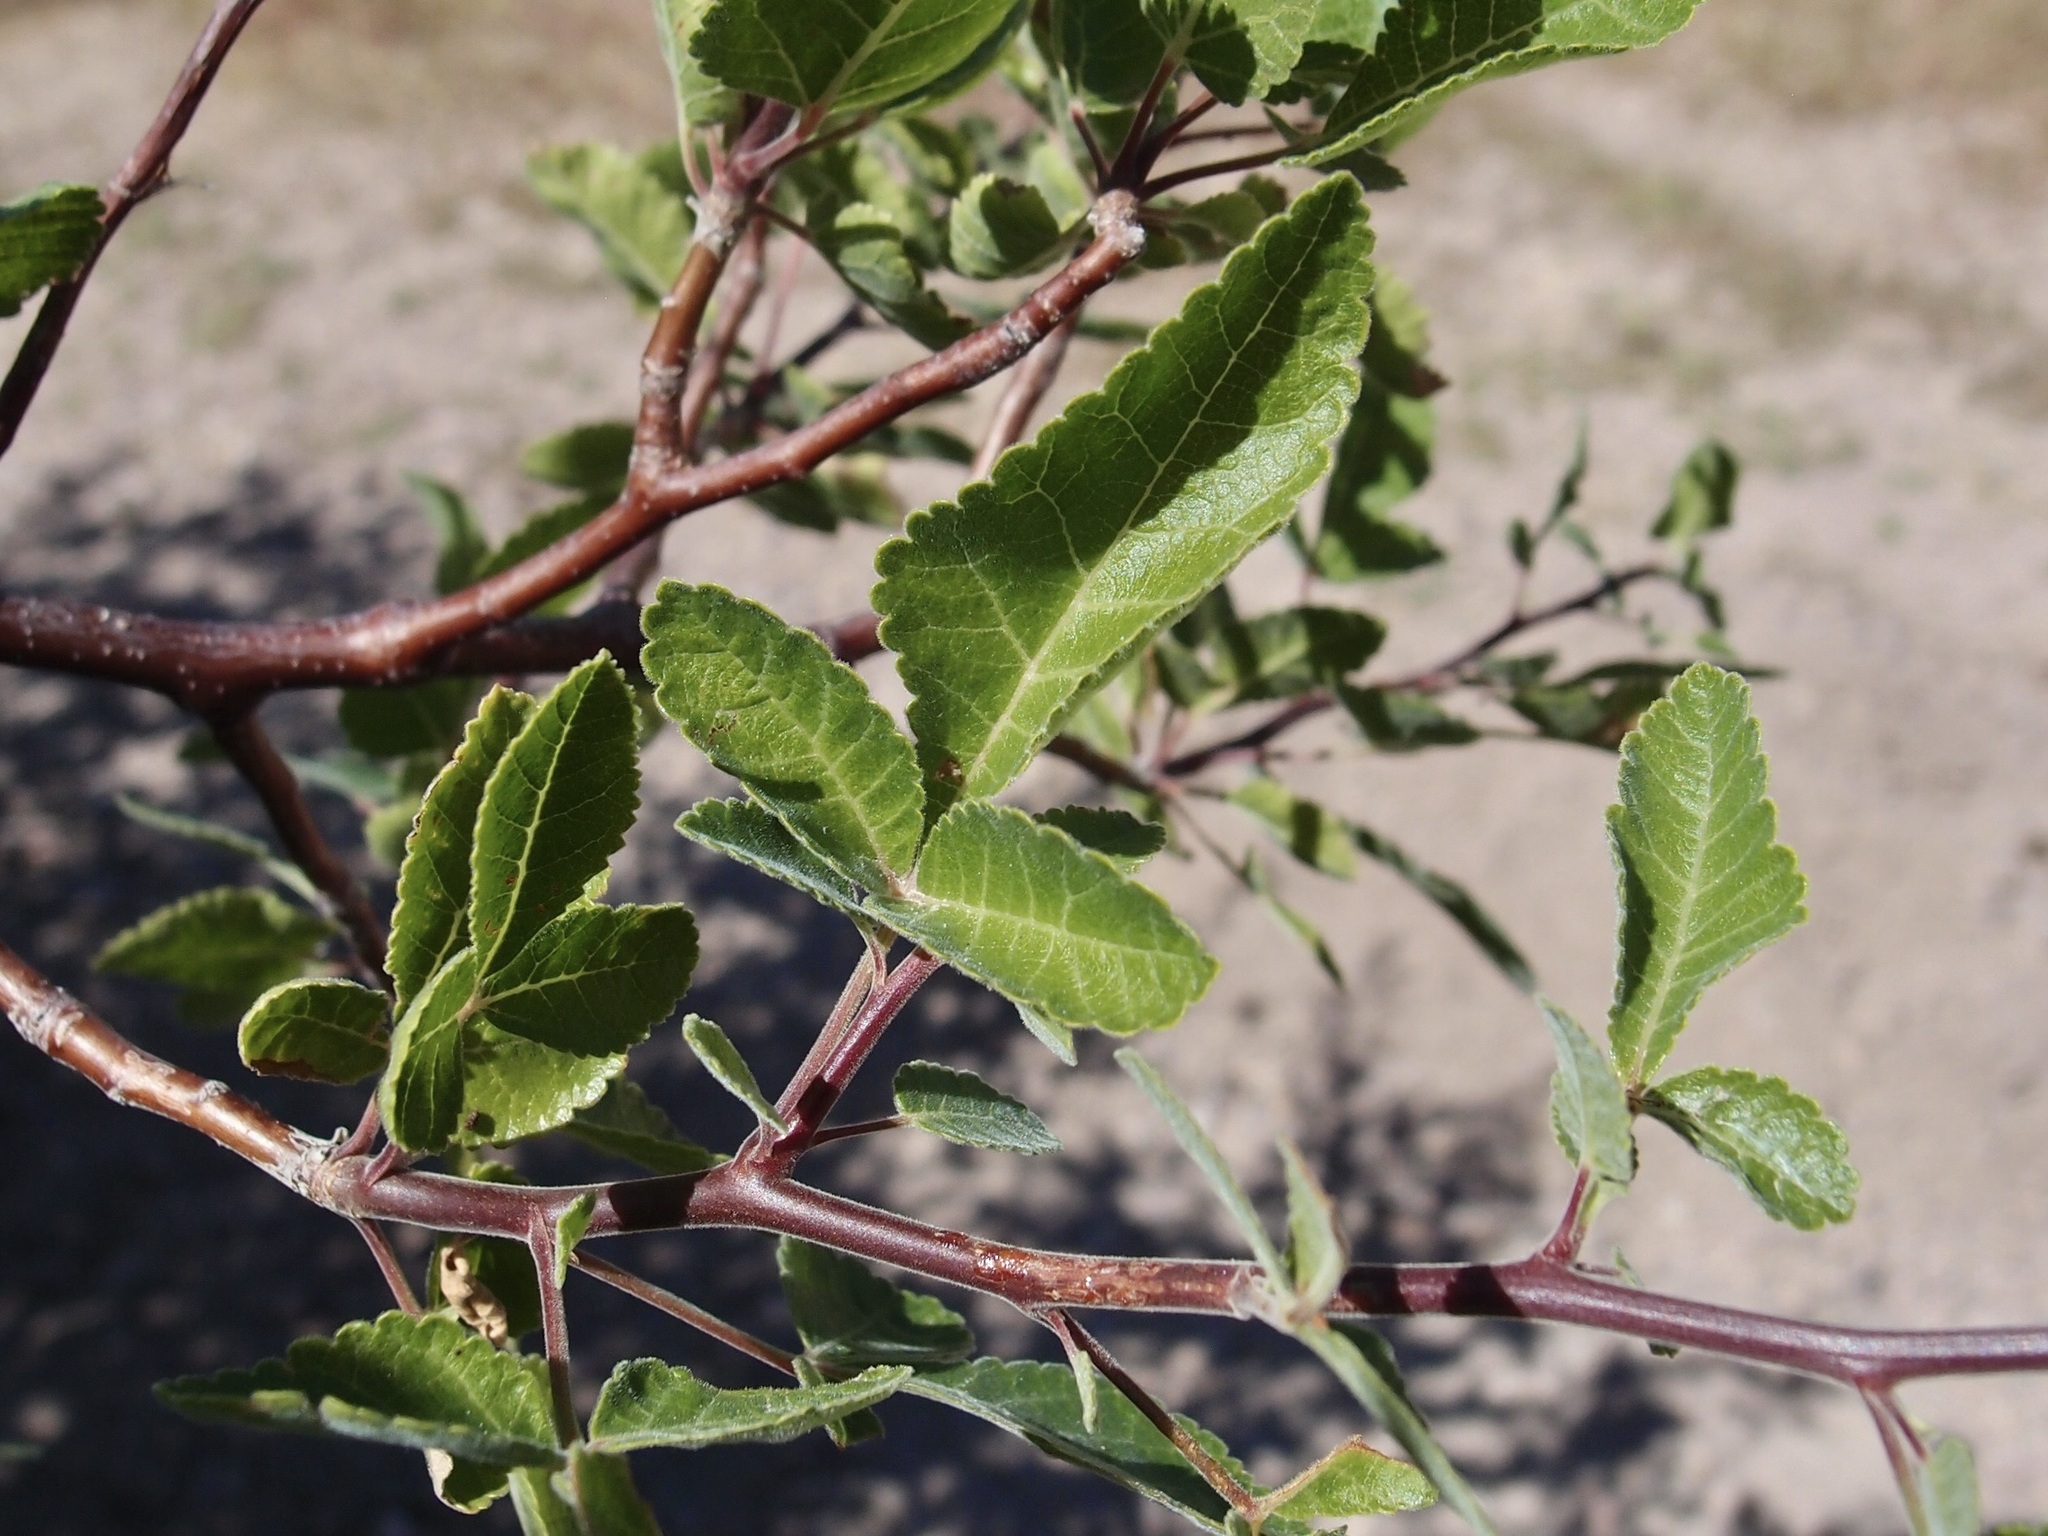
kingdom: Plantae
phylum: Tracheophyta
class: Magnoliopsida
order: Sapindales
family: Burseraceae
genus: Bursera
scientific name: Bursera hindsiana
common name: Red elephant tree
